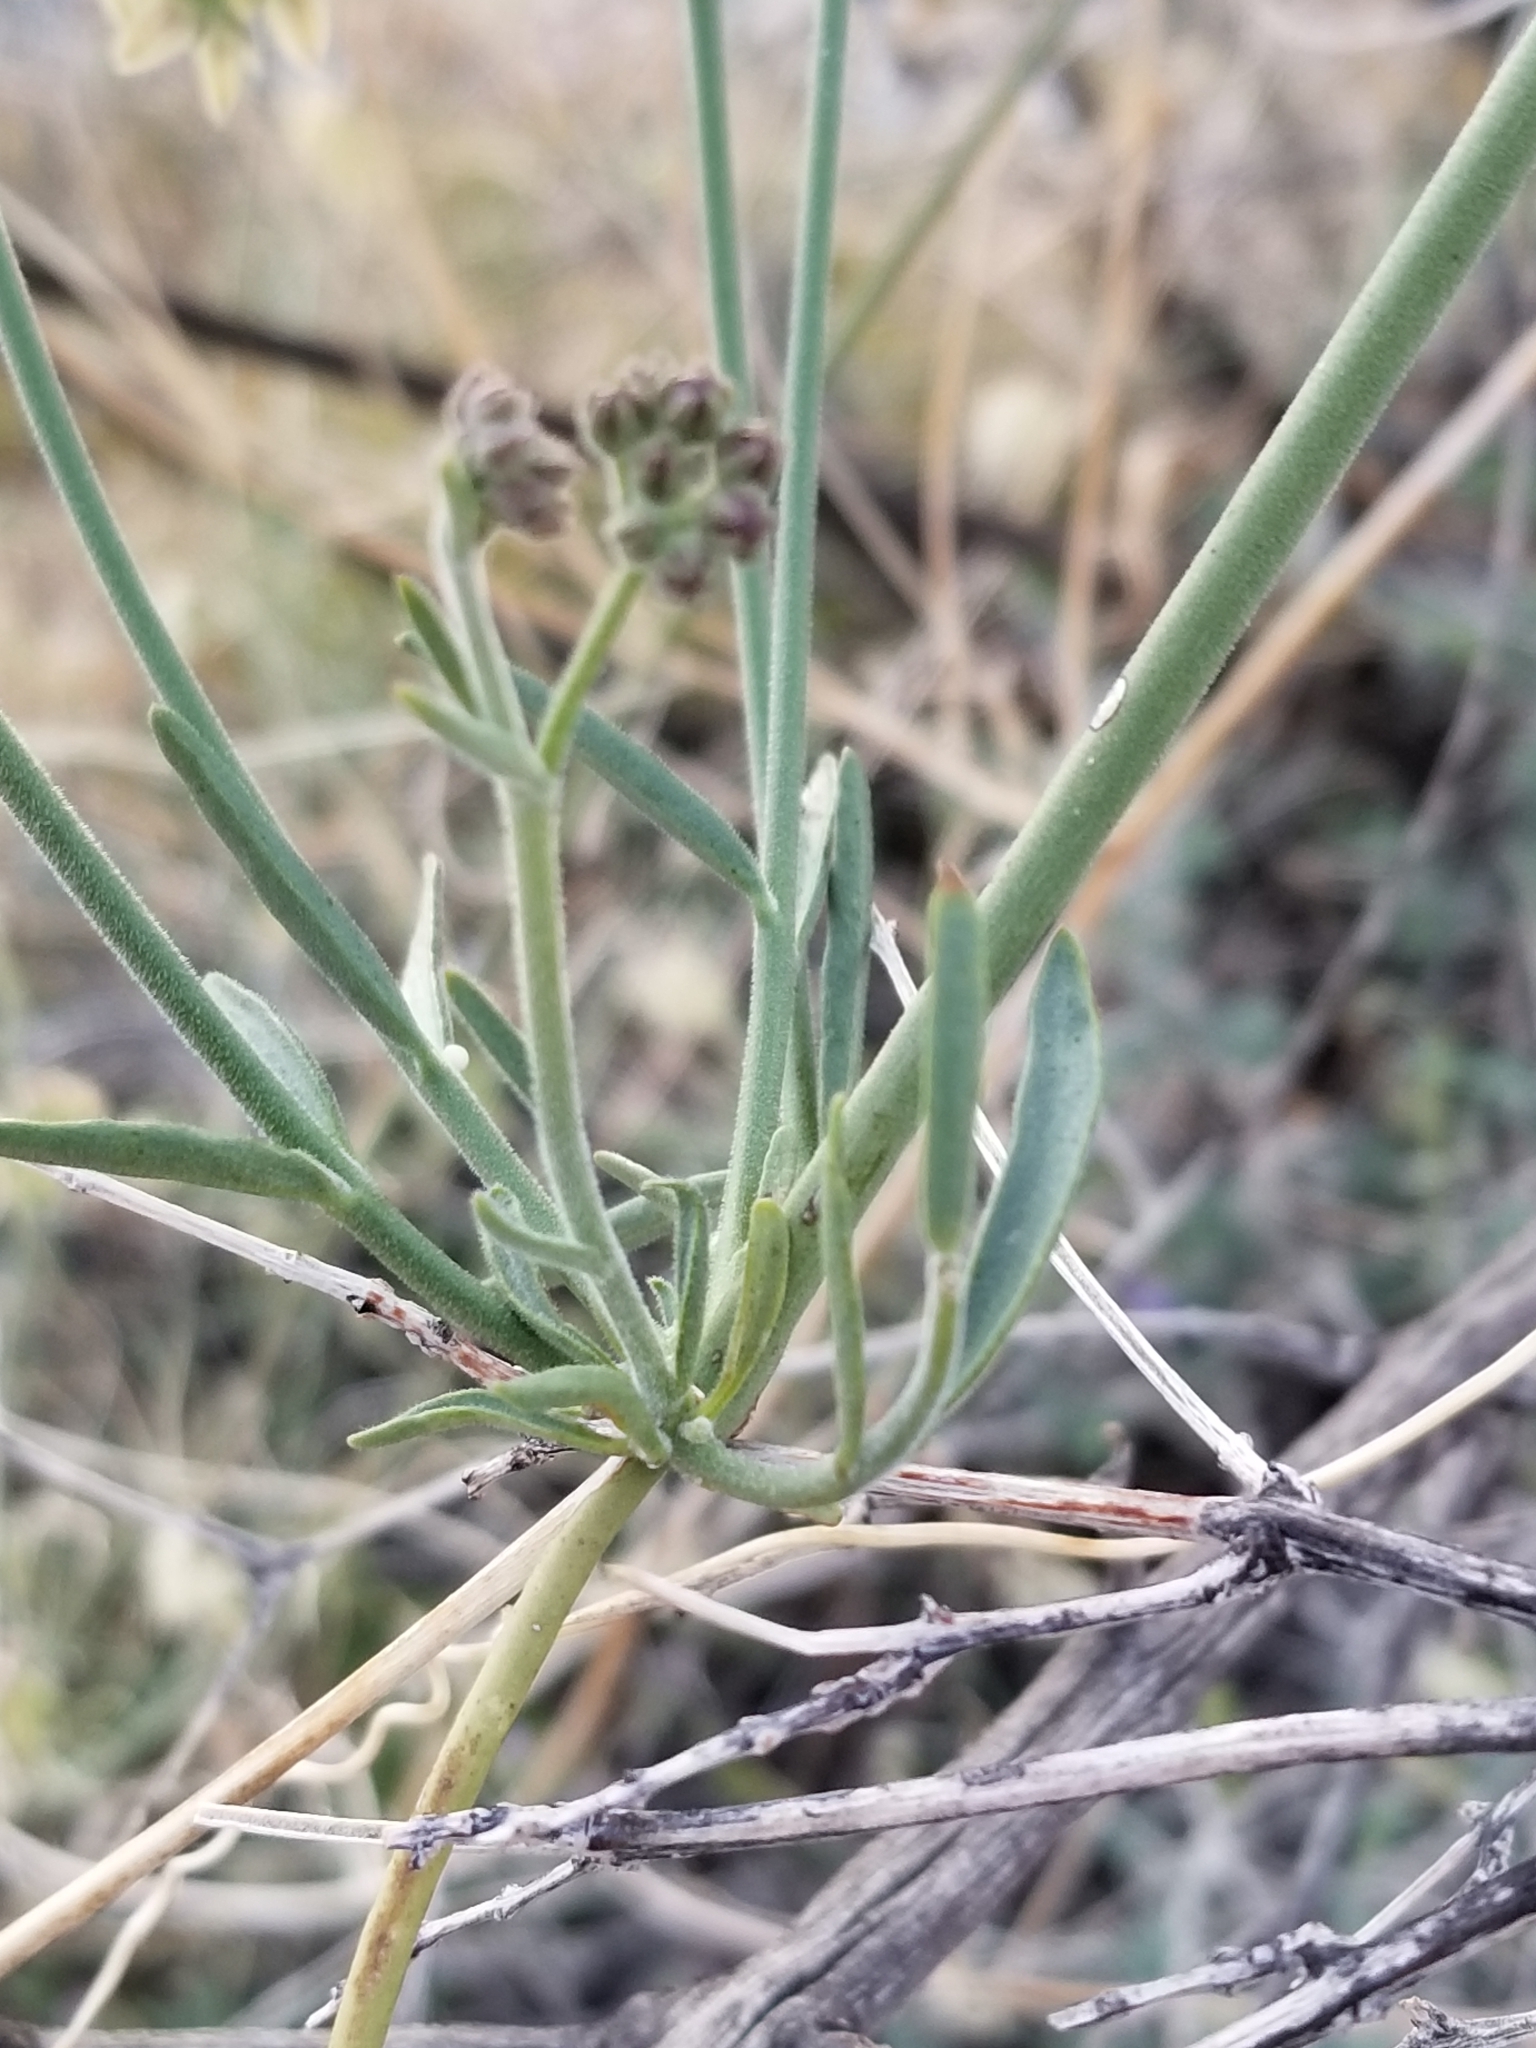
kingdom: Plantae
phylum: Tracheophyta
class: Magnoliopsida
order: Gentianales
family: Apocynaceae
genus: Funastrum
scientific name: Funastrum hirtellum
